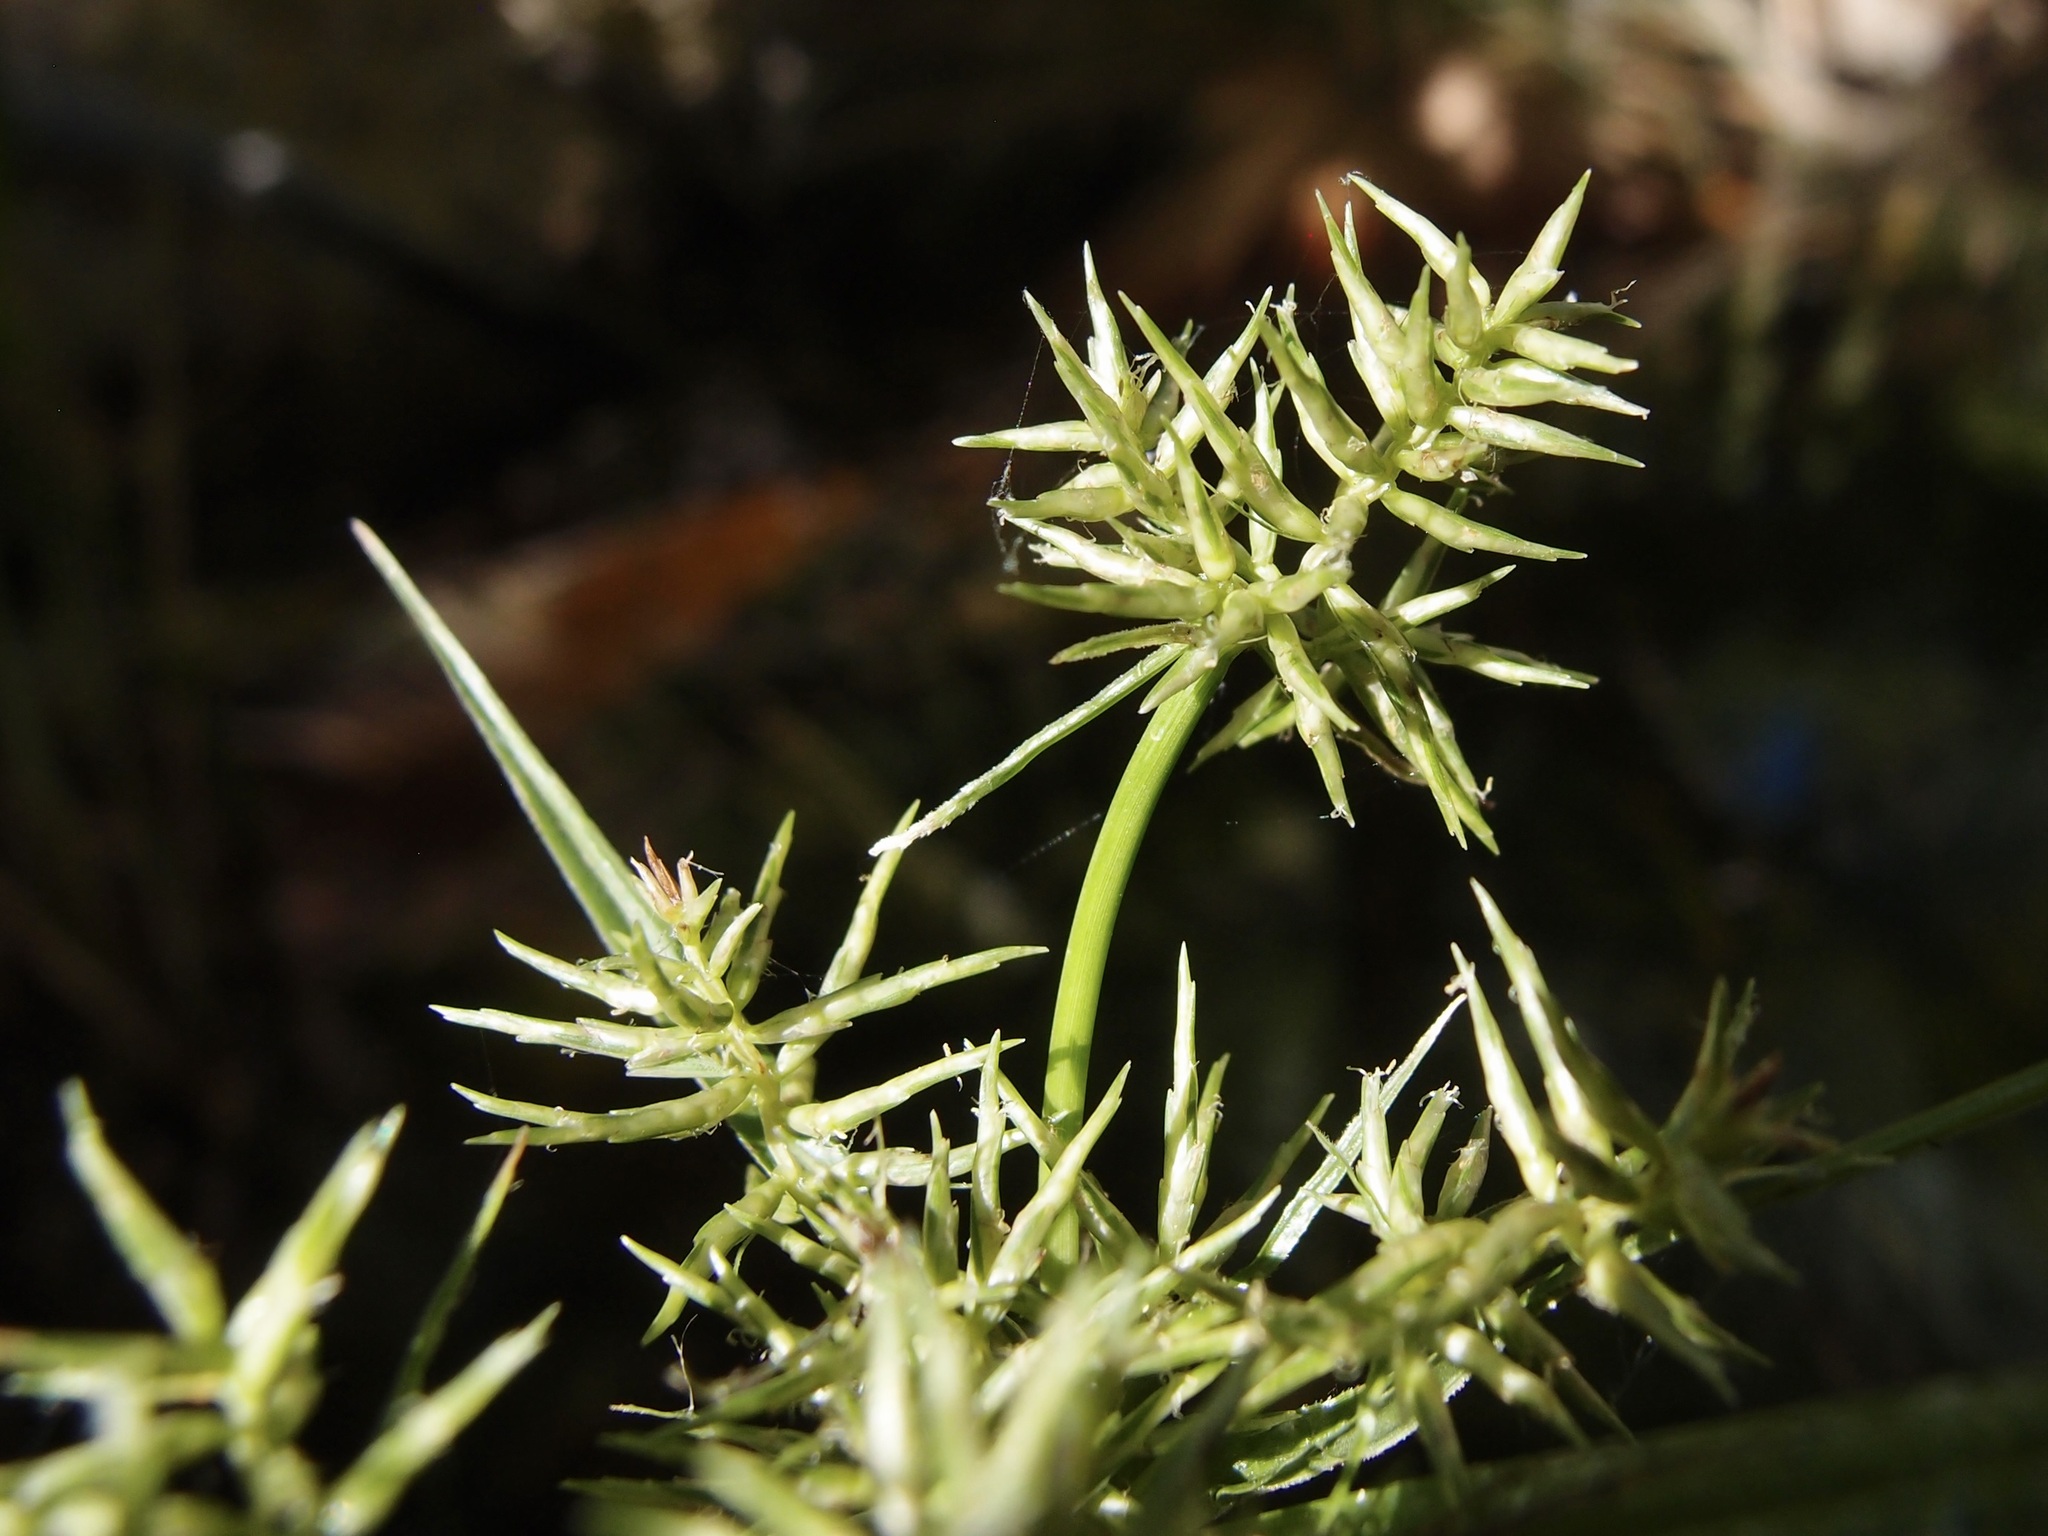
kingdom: Plantae
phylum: Tracheophyta
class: Liliopsida
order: Poales
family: Cyperaceae
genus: Cyperus
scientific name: Cyperus odoratus
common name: Fragrant flatsedge
